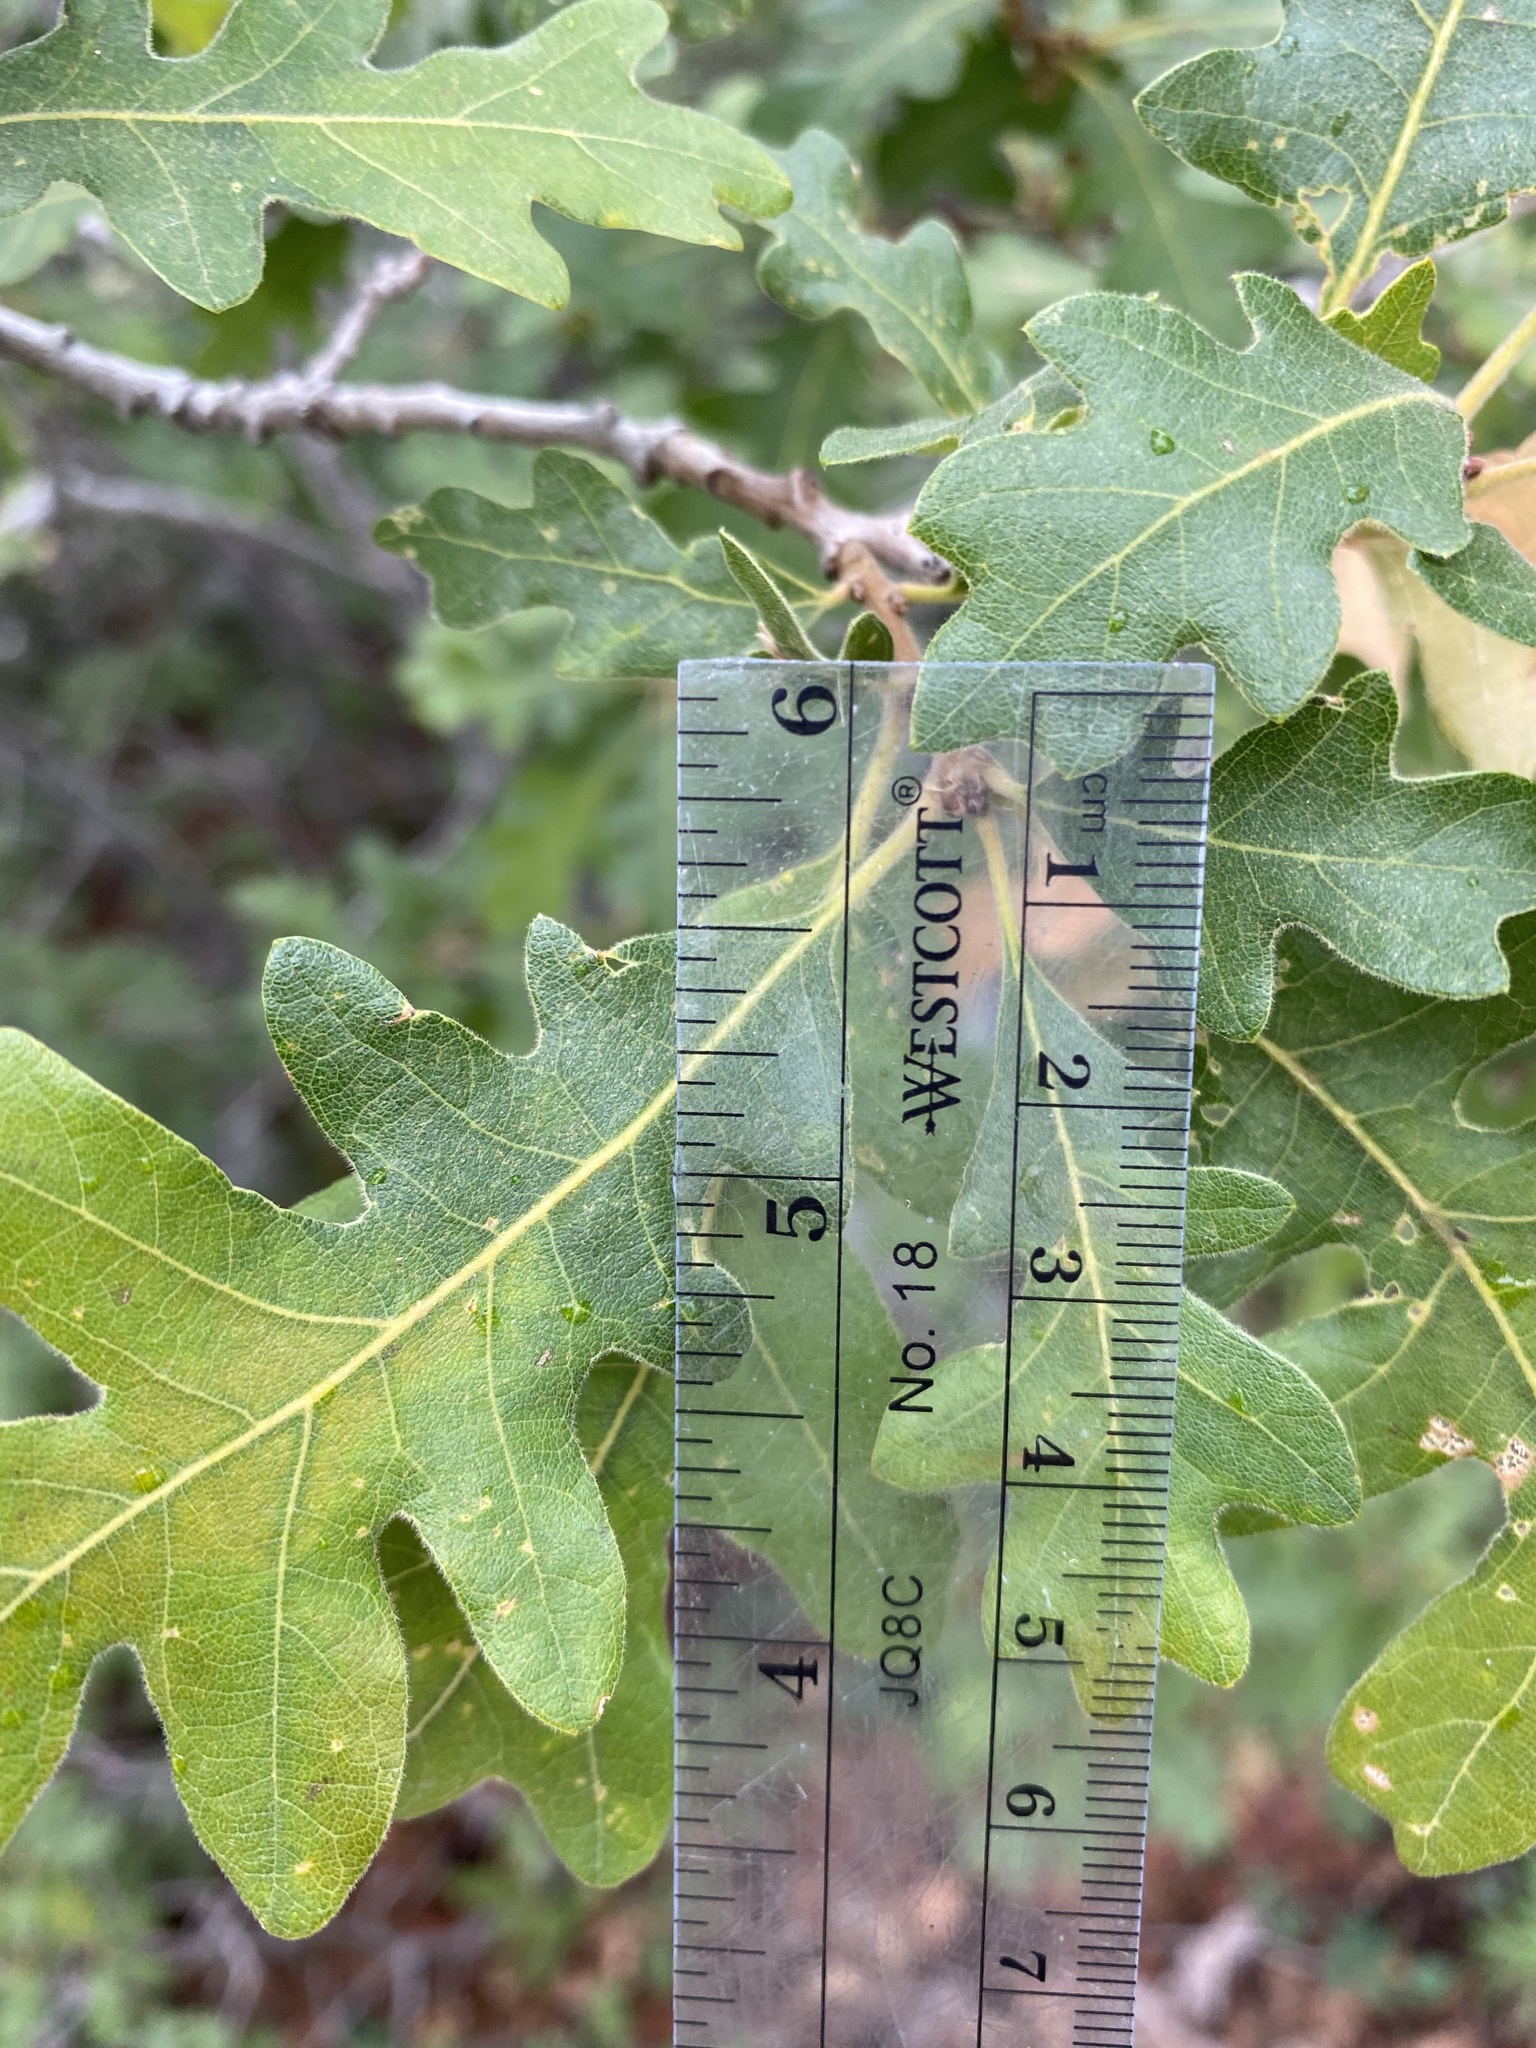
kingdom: Plantae
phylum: Tracheophyta
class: Magnoliopsida
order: Fagales
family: Fagaceae
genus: Quercus
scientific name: Quercus gambelii
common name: Gambel oak
